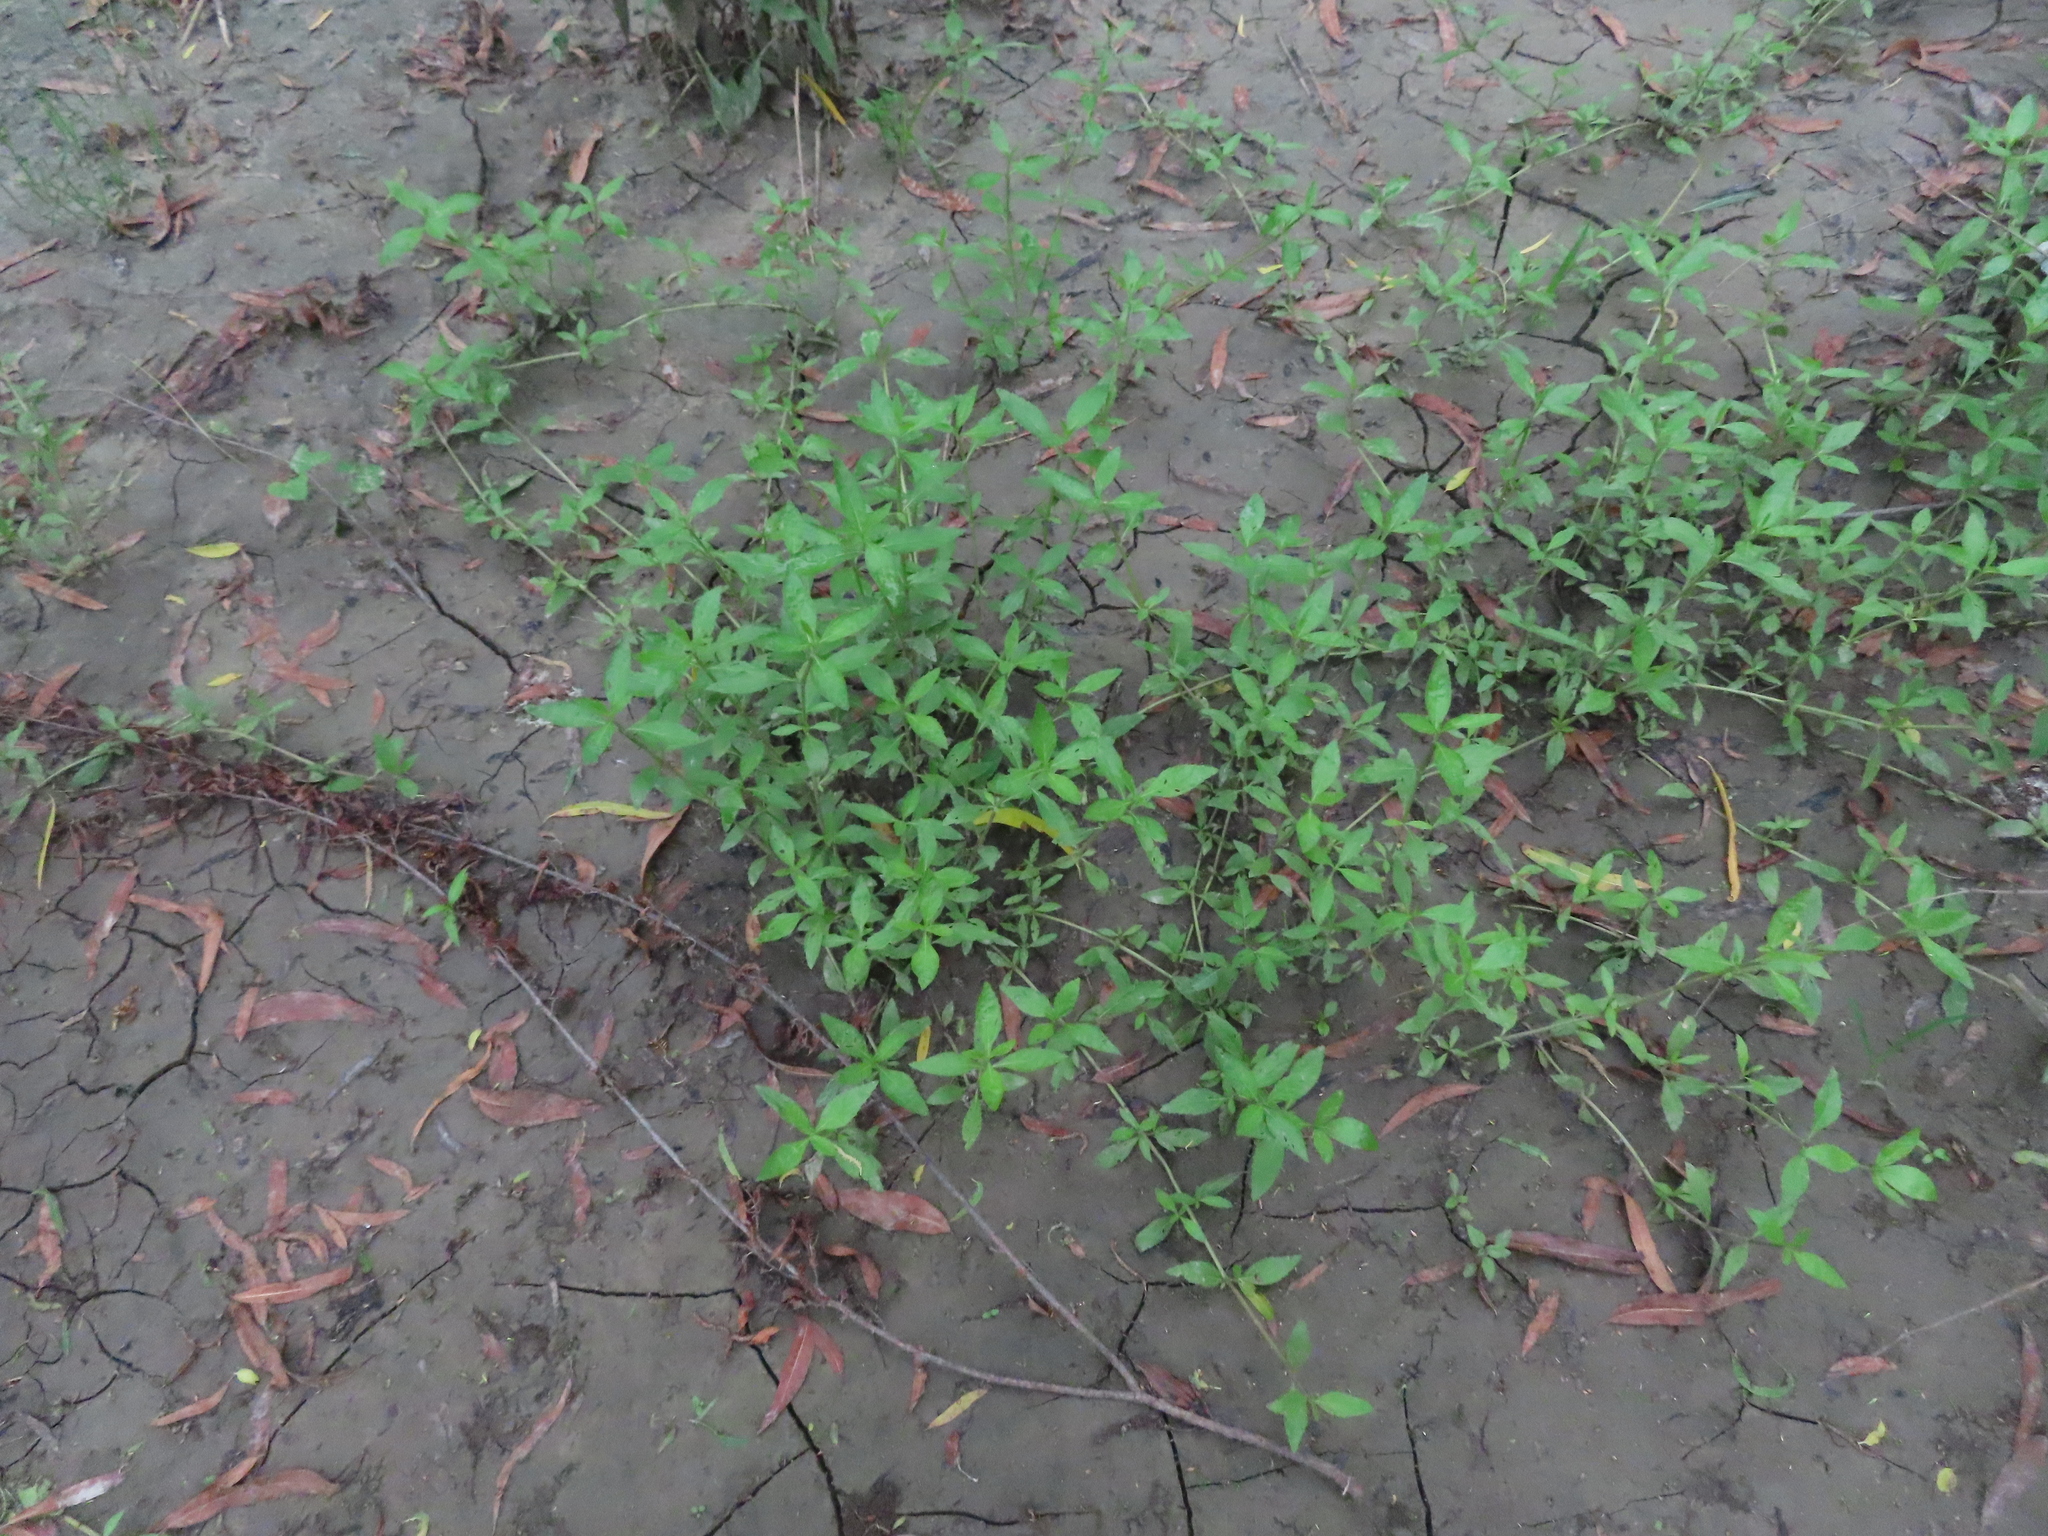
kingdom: Plantae
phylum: Tracheophyta
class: Magnoliopsida
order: Lamiales
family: Verbenaceae
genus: Phyla
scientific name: Phyla lanceolata
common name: Northern fogfruit
